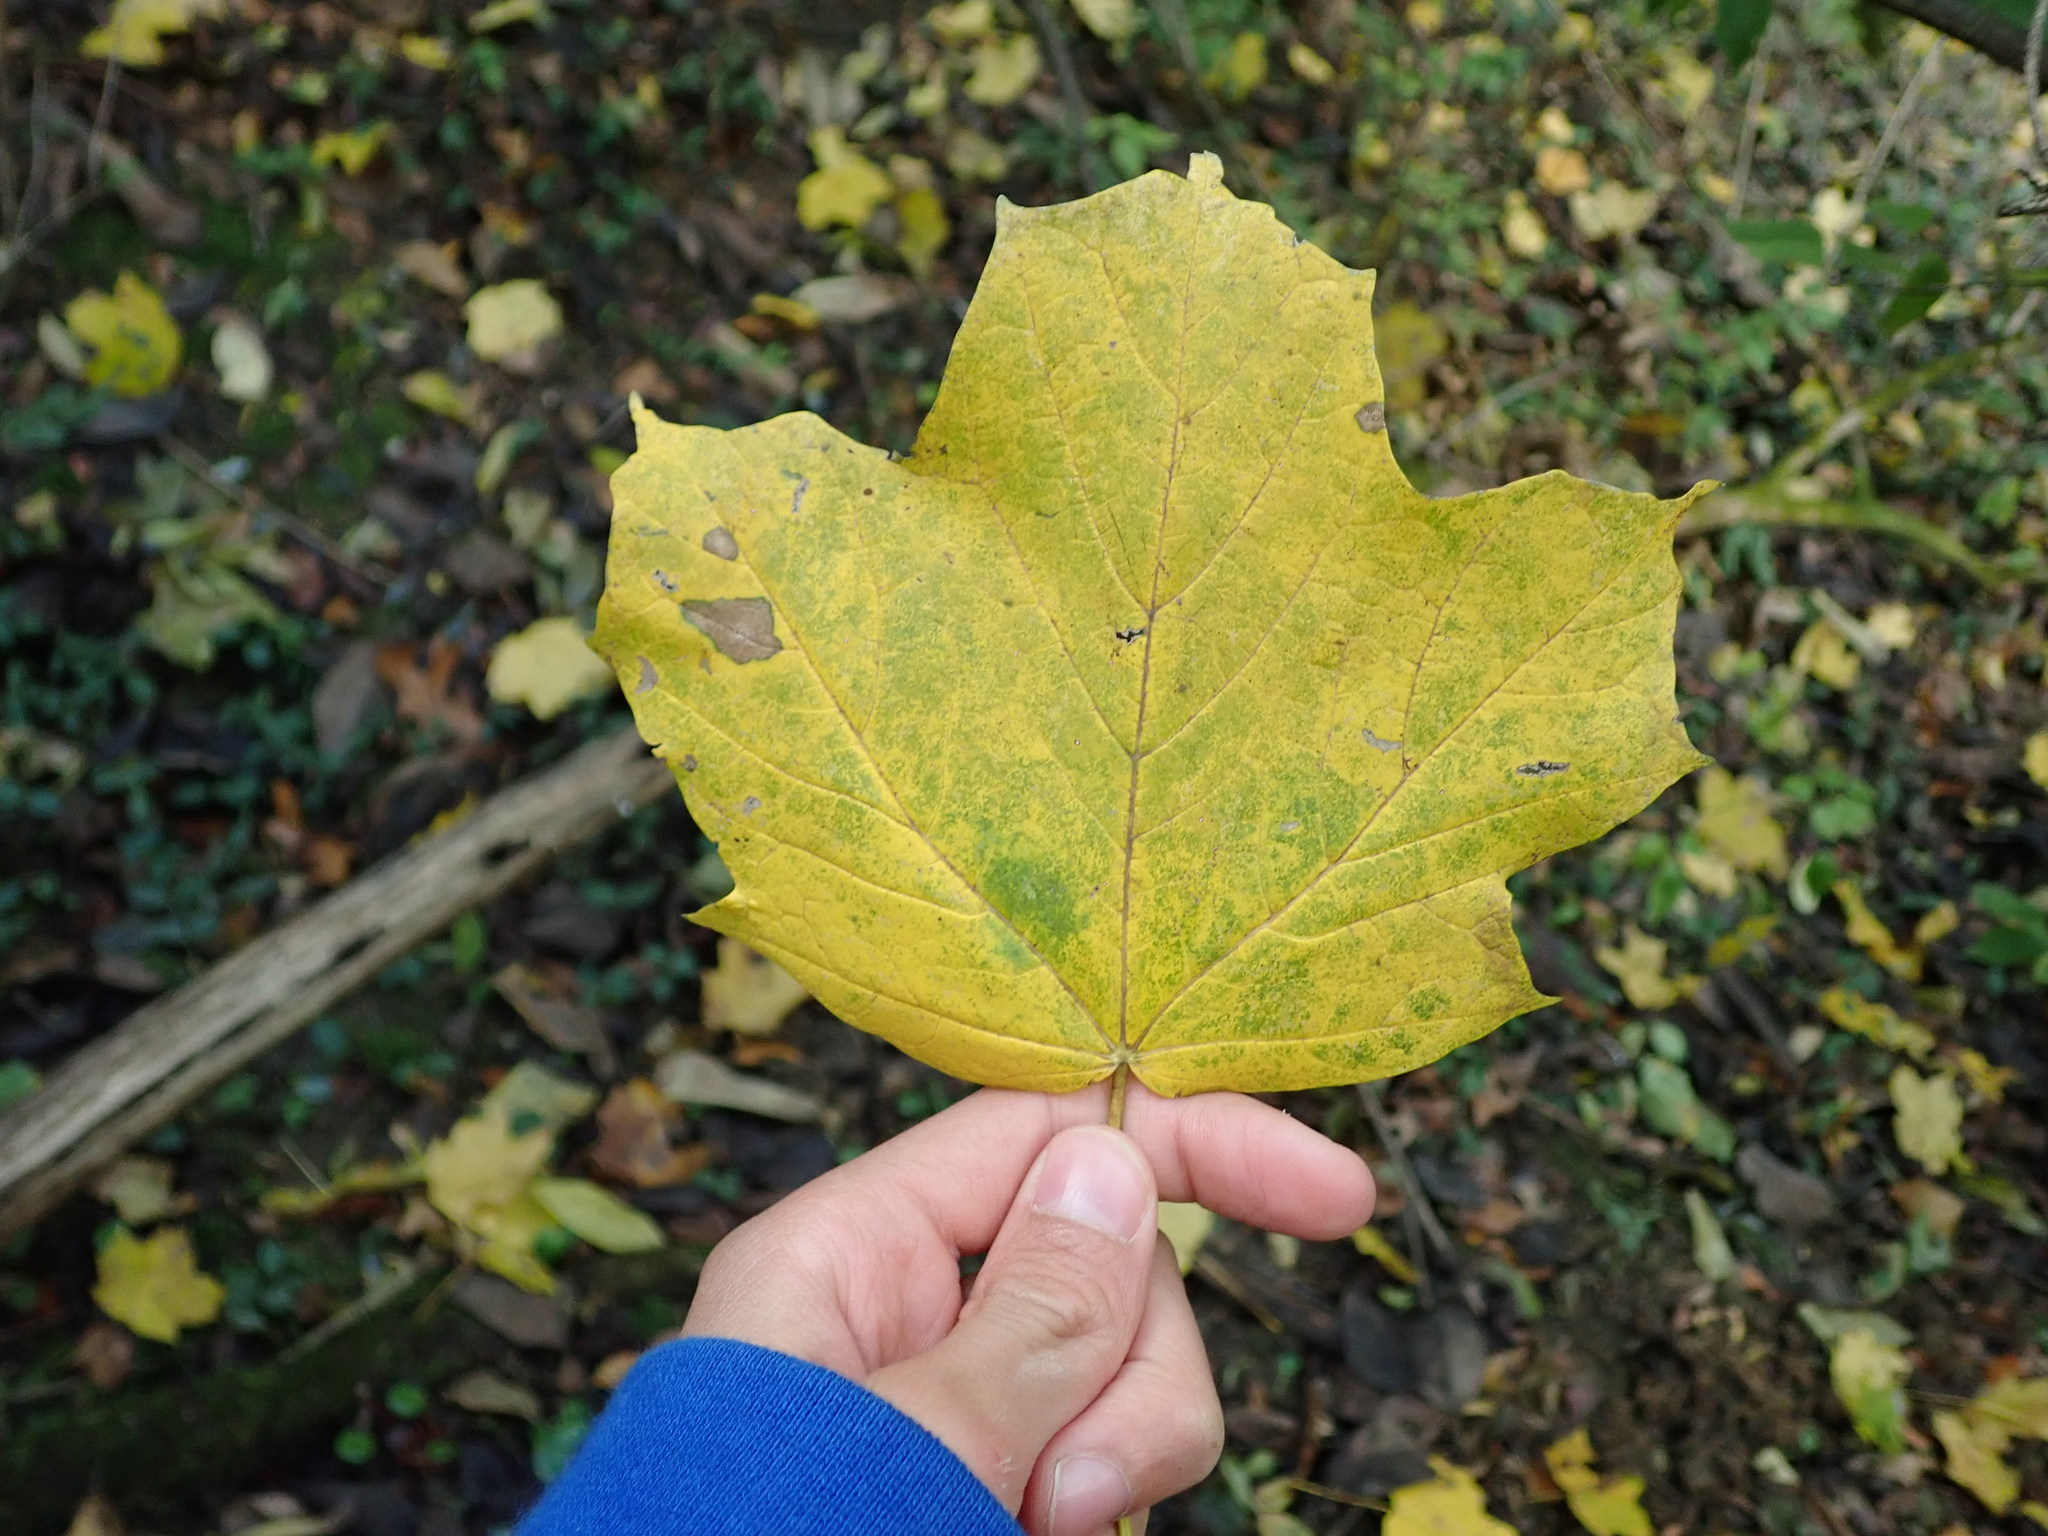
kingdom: Plantae
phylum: Tracheophyta
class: Magnoliopsida
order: Sapindales
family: Sapindaceae
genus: Acer
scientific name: Acer nigrum
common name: Black maple
